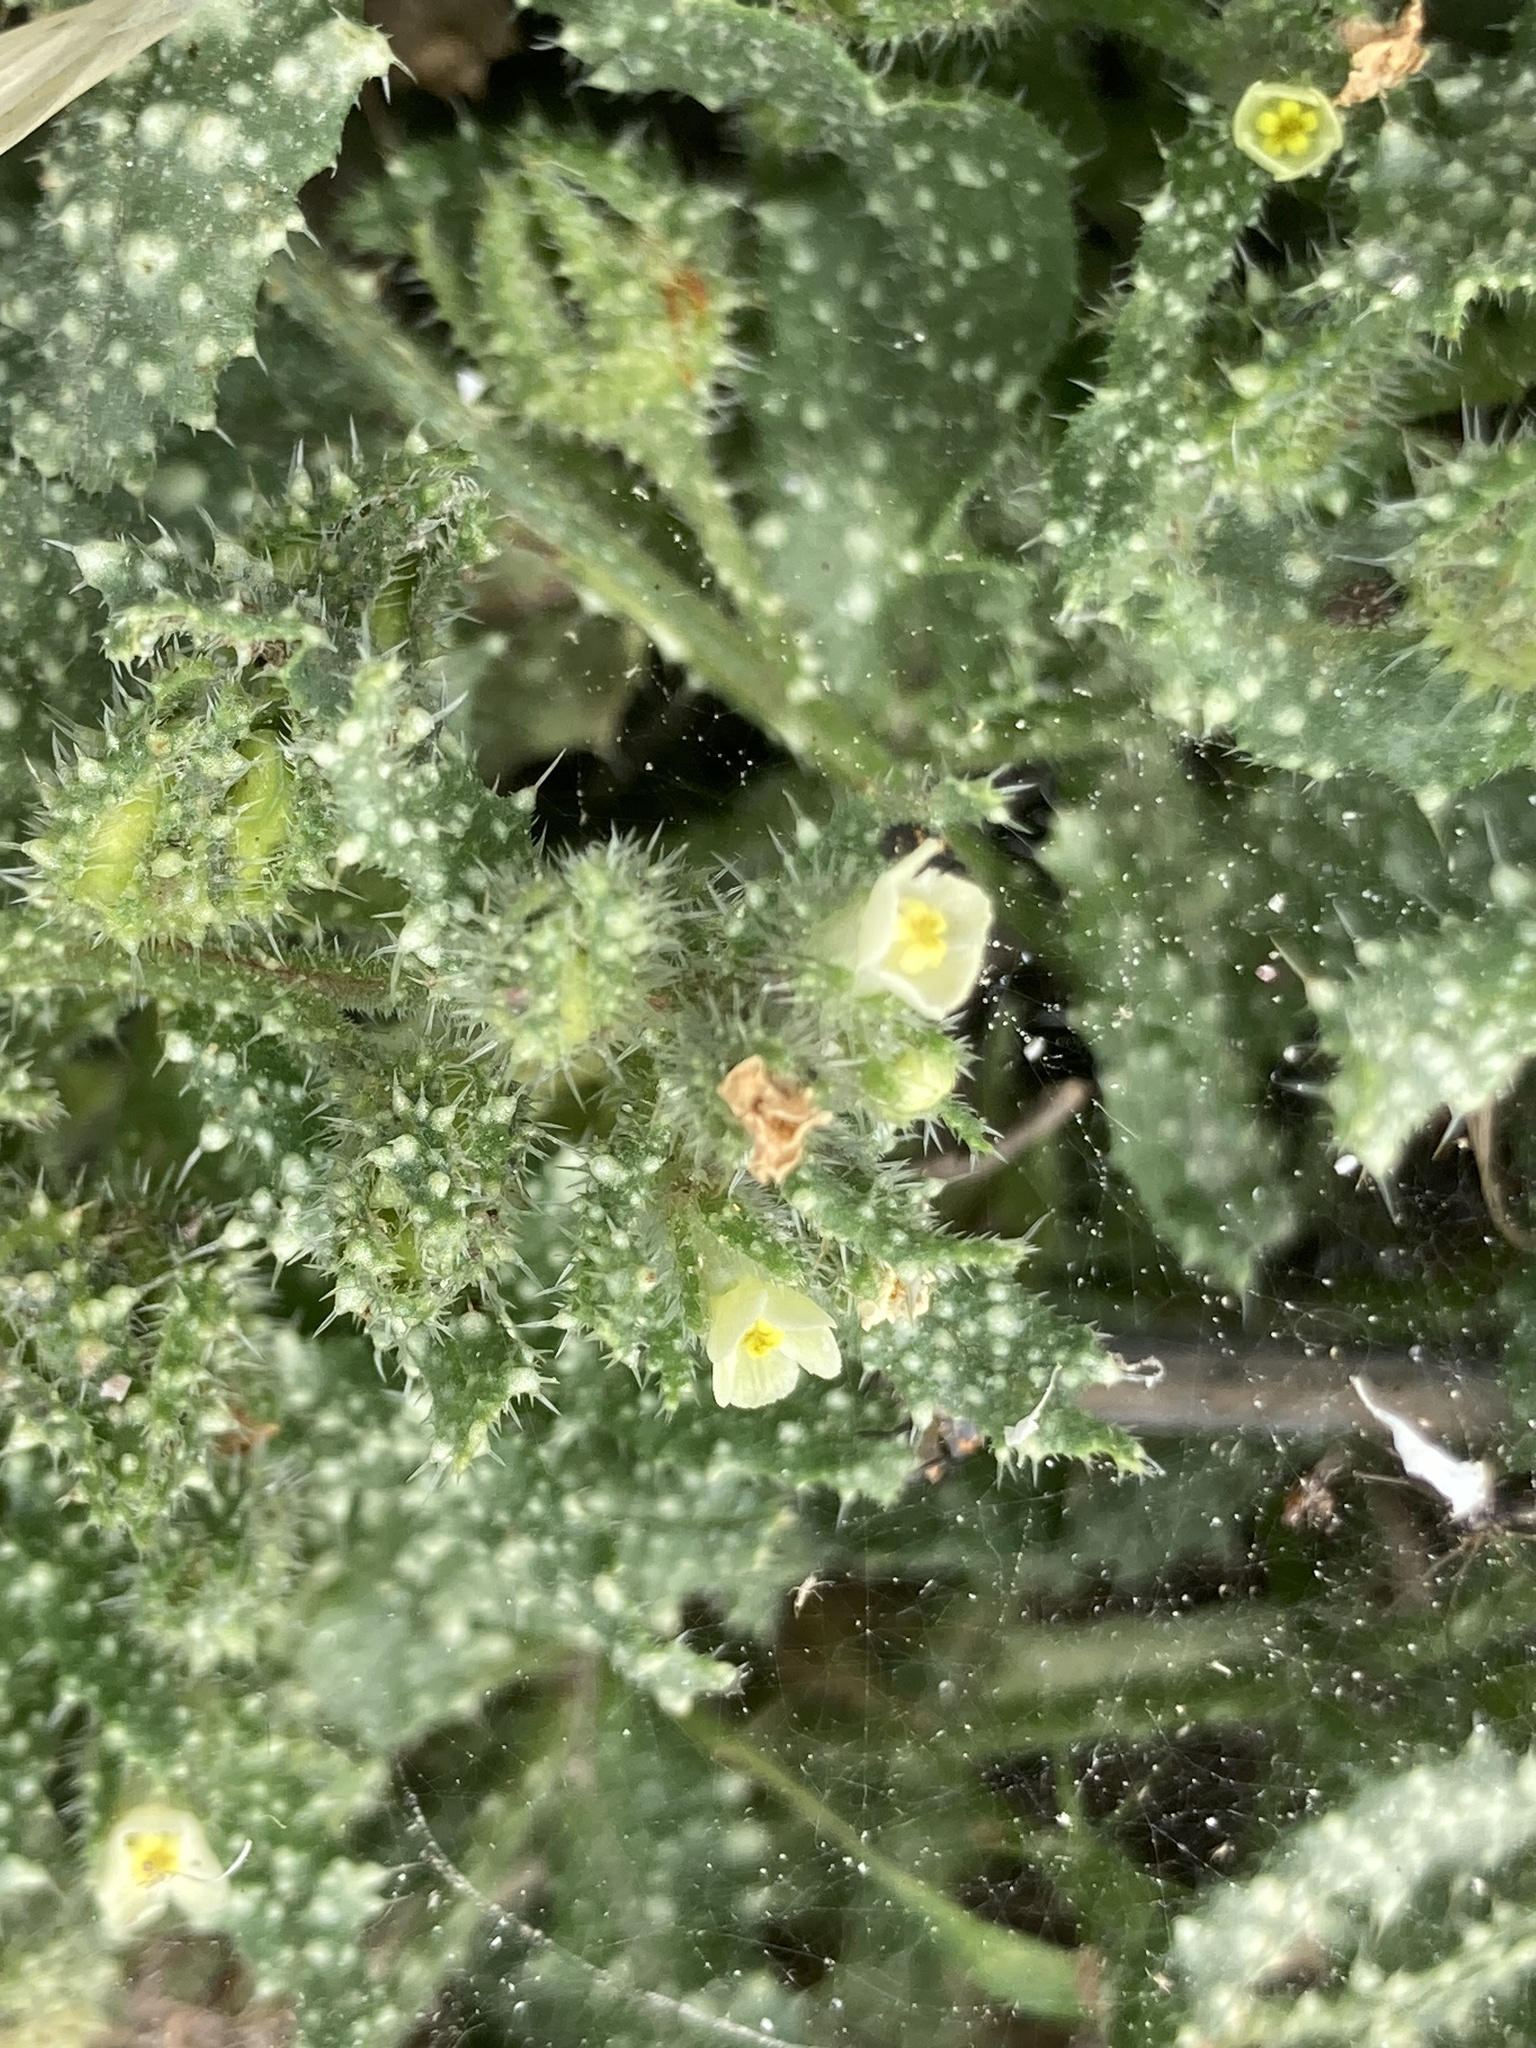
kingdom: Plantae
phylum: Tracheophyta
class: Magnoliopsida
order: Boraginales
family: Boraginaceae
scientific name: Boraginaceae
